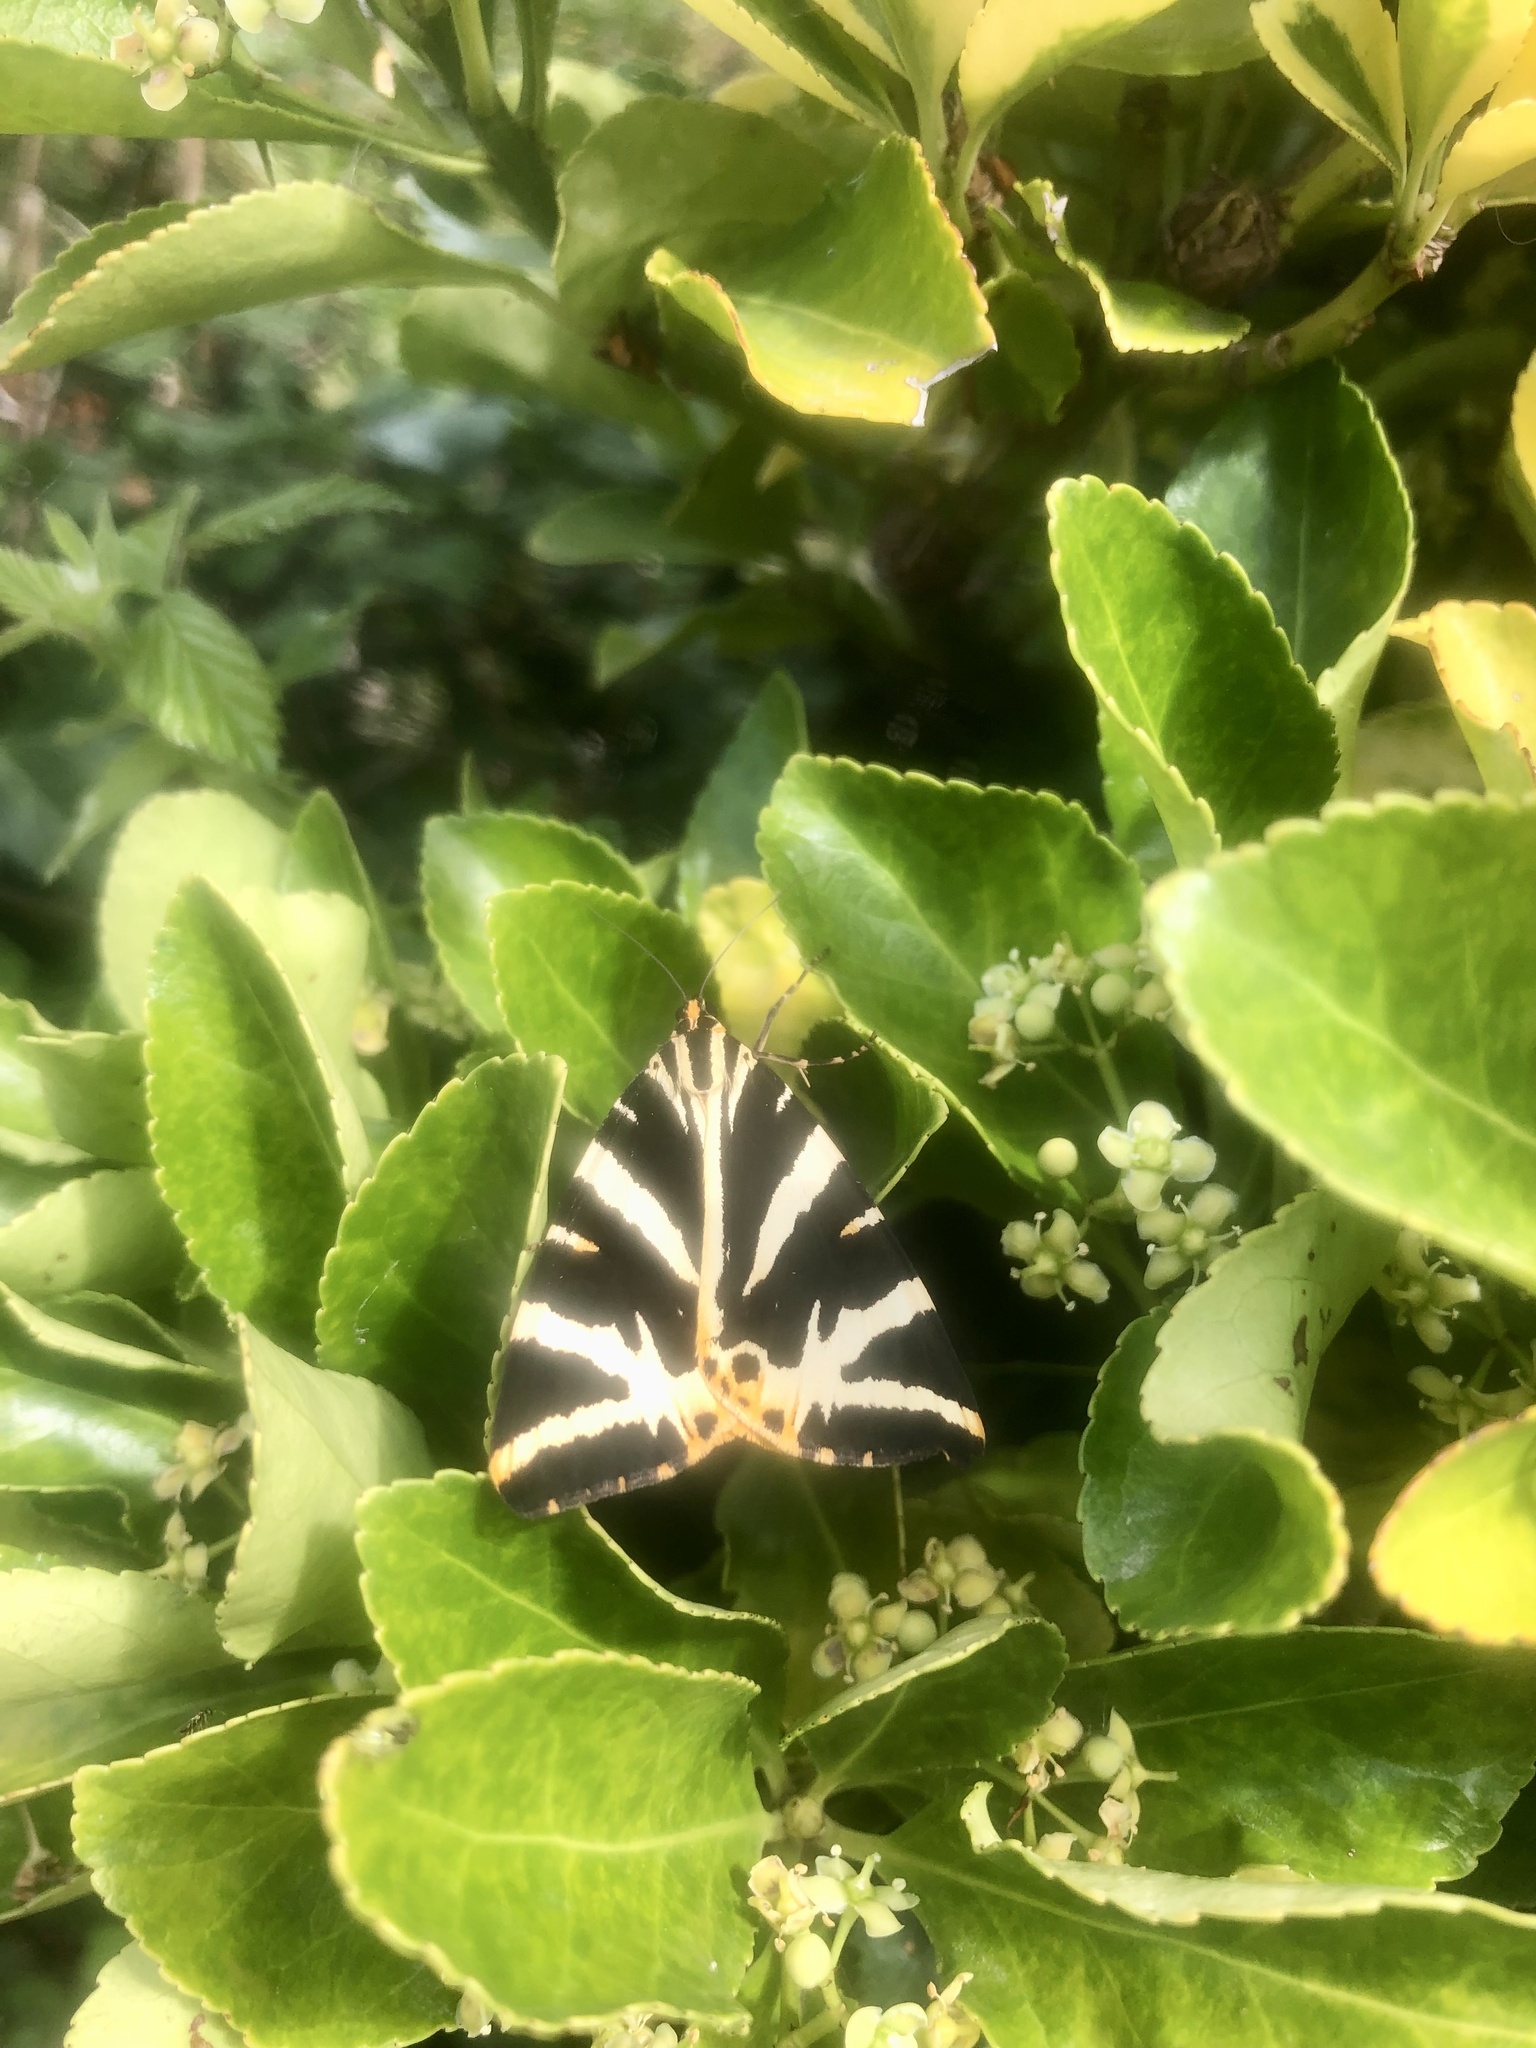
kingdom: Animalia
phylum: Arthropoda
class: Insecta
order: Lepidoptera
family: Erebidae
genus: Euplagia
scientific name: Euplagia quadripunctaria
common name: Jersey tiger
